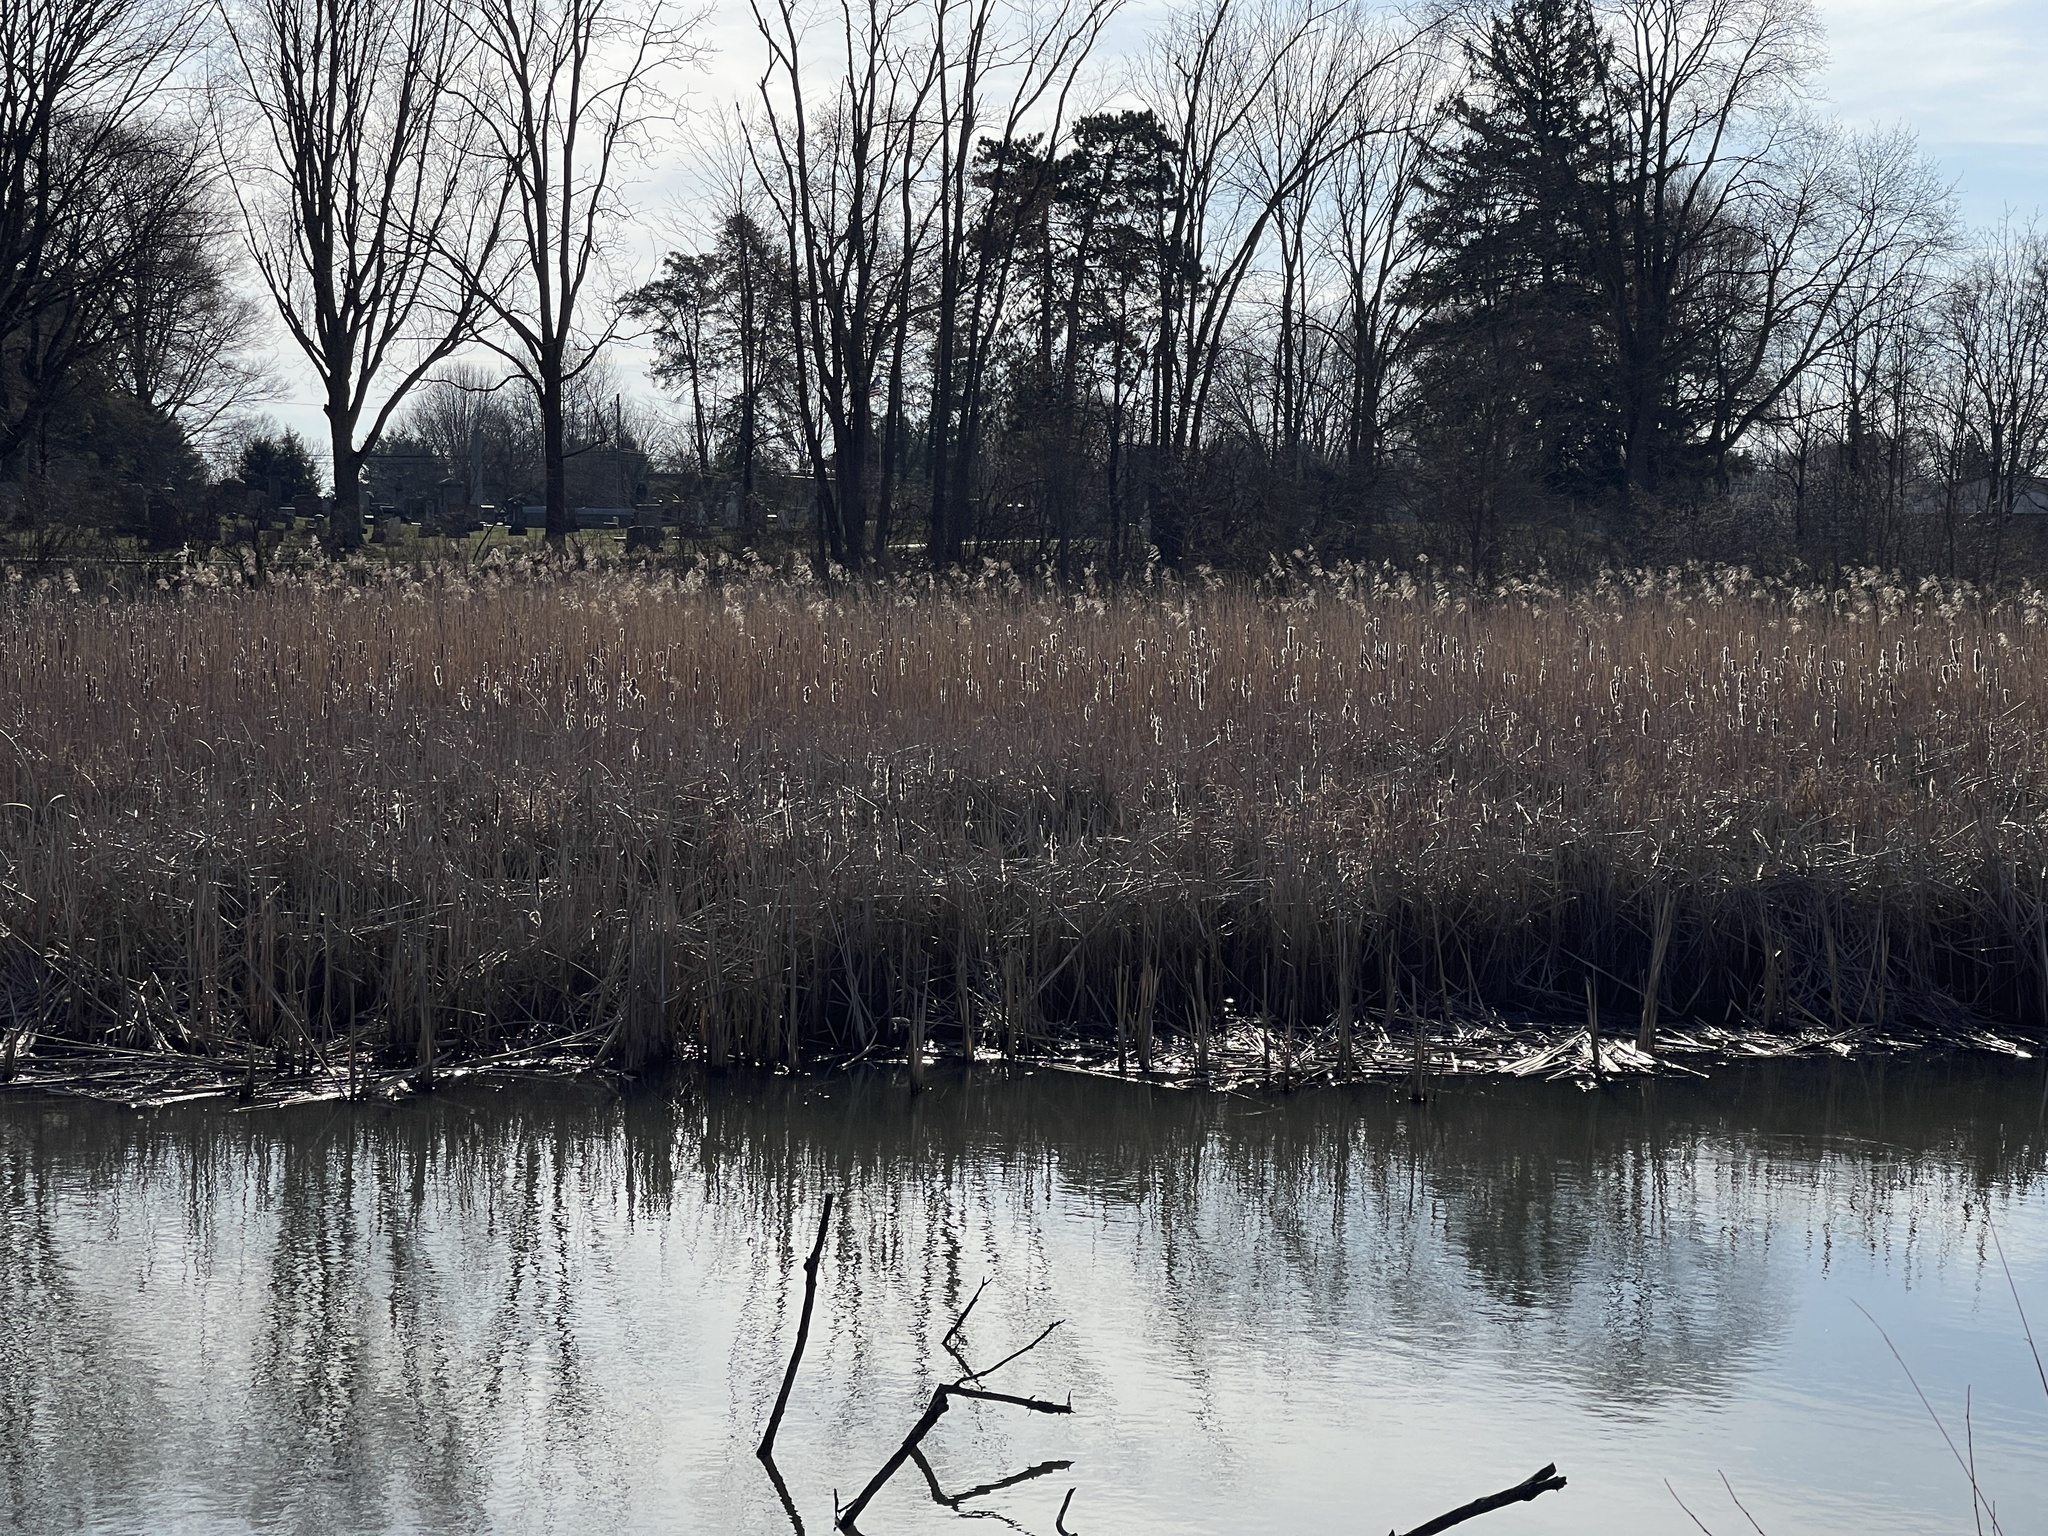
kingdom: Plantae
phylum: Tracheophyta
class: Liliopsida
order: Poales
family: Poaceae
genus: Phragmites
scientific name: Phragmites australis
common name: Common reed
